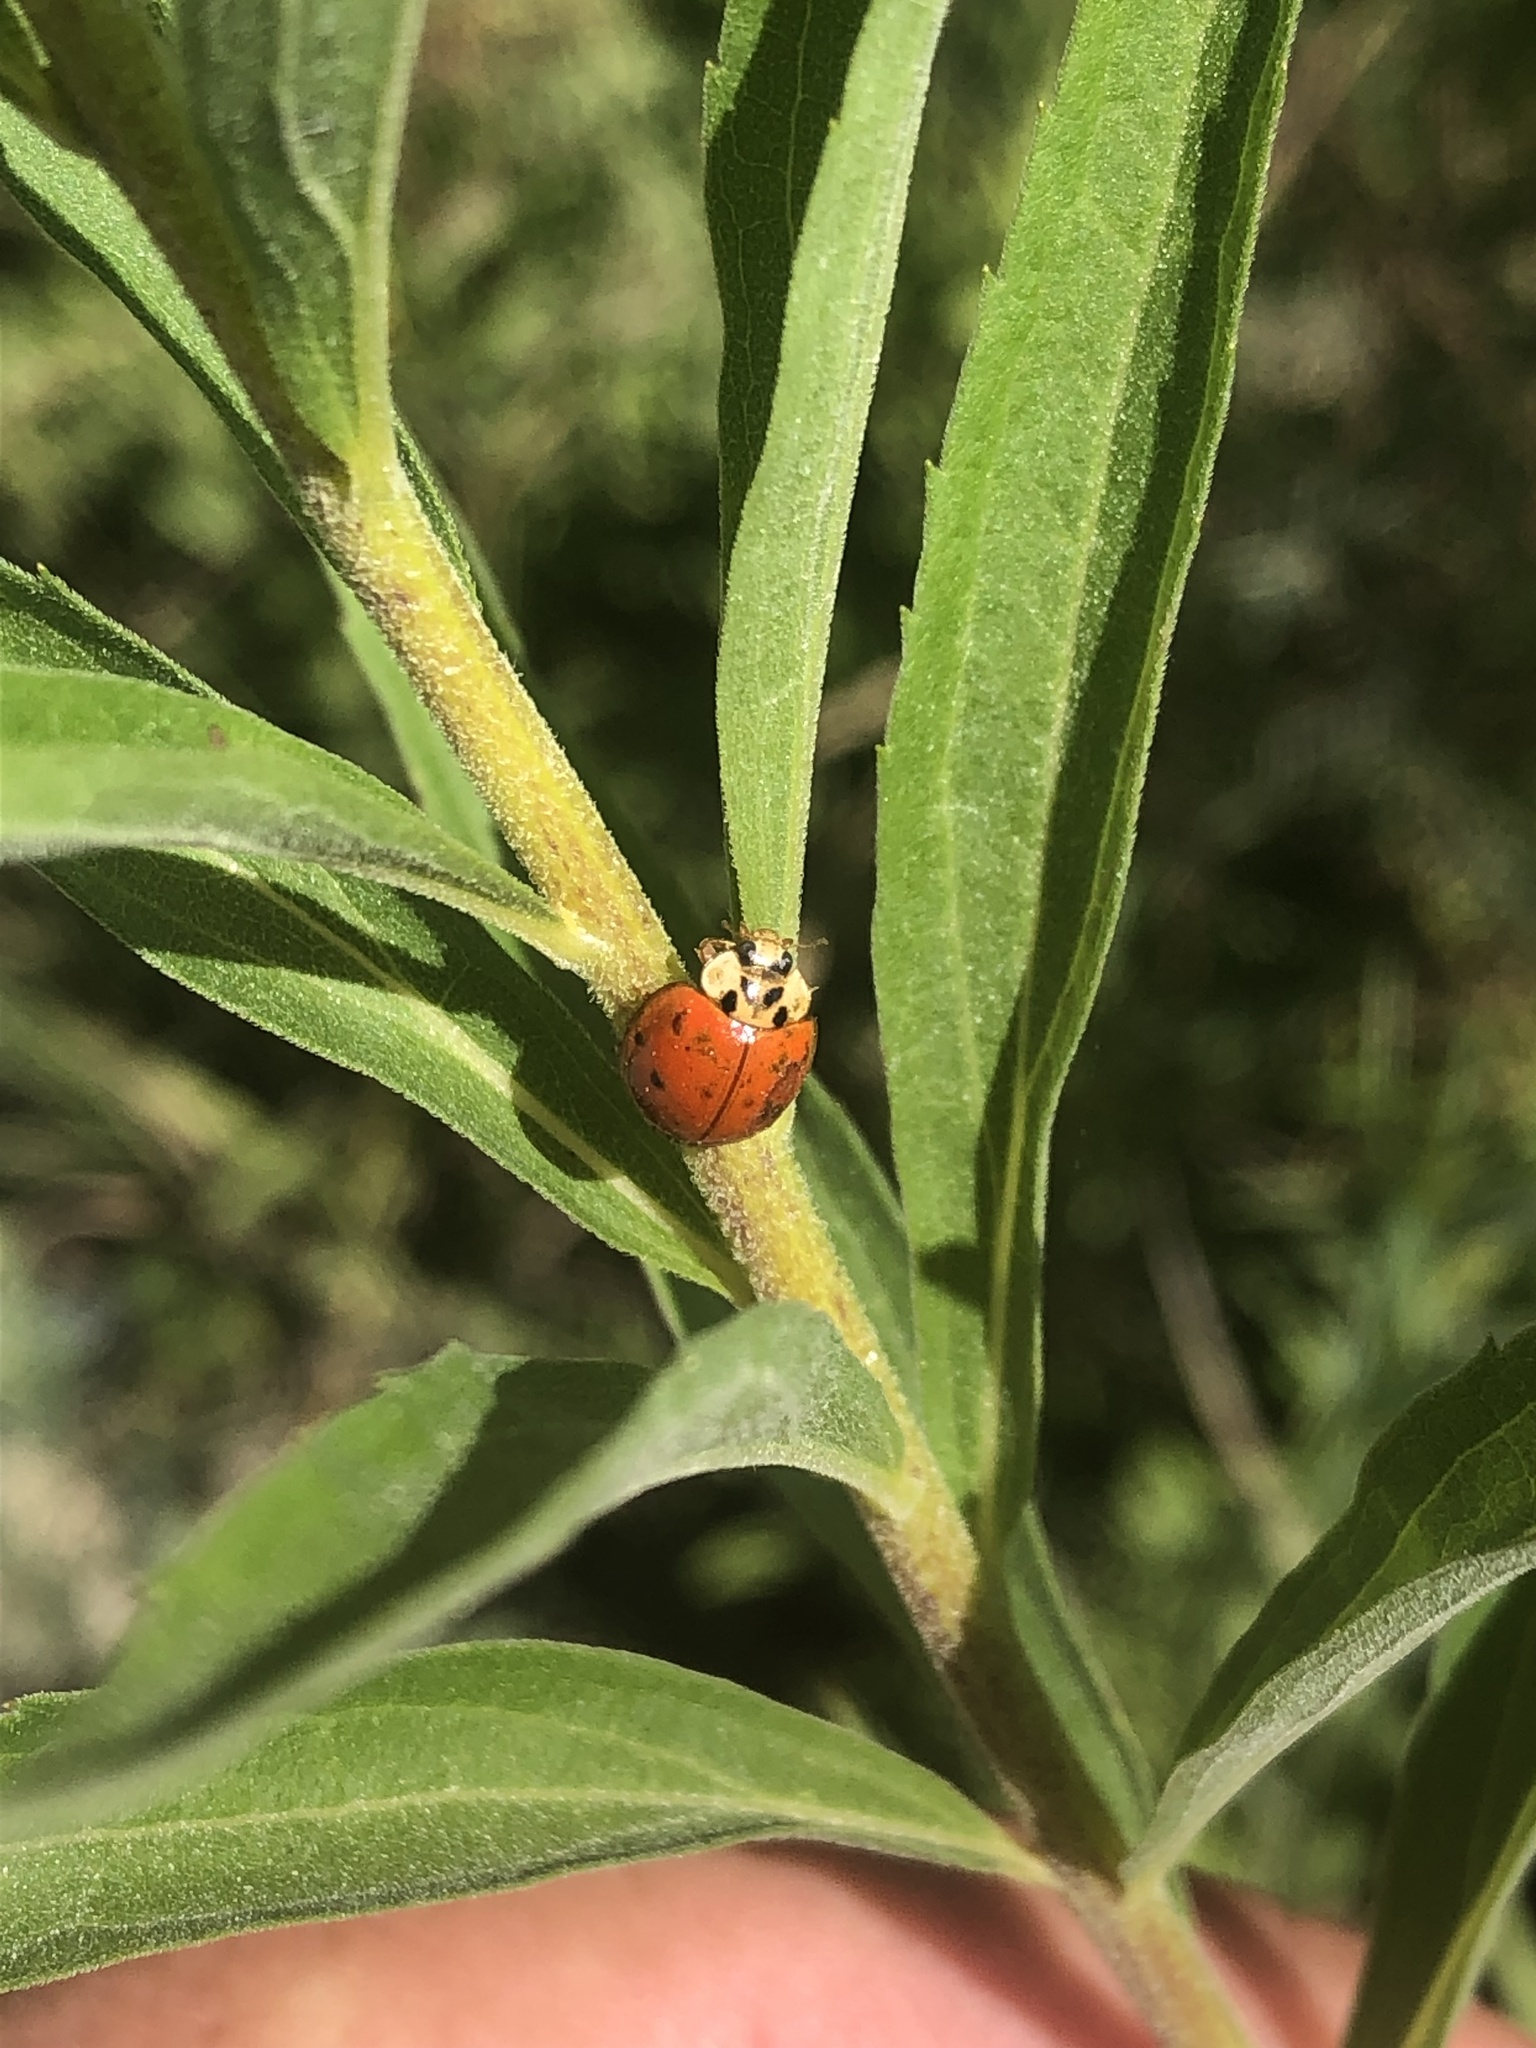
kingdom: Animalia
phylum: Arthropoda
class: Insecta
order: Coleoptera
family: Coccinellidae
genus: Harmonia
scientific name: Harmonia axyridis
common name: Harlequin ladybird
